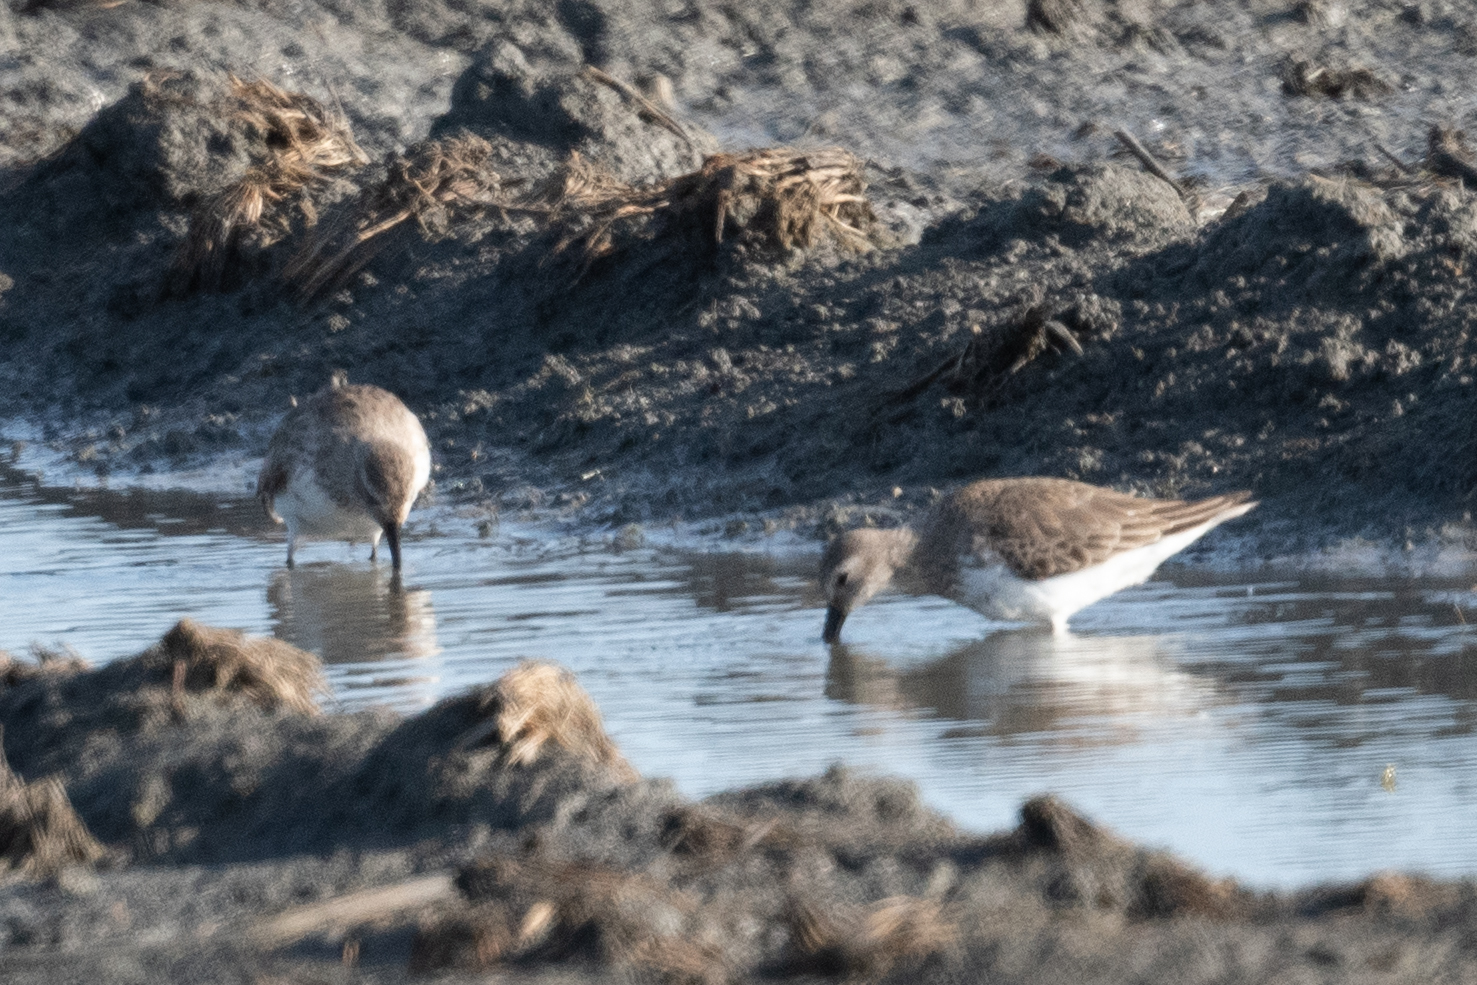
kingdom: Animalia
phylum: Chordata
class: Aves
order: Charadriiformes
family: Scolopacidae
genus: Calidris
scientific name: Calidris alpina
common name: Dunlin
